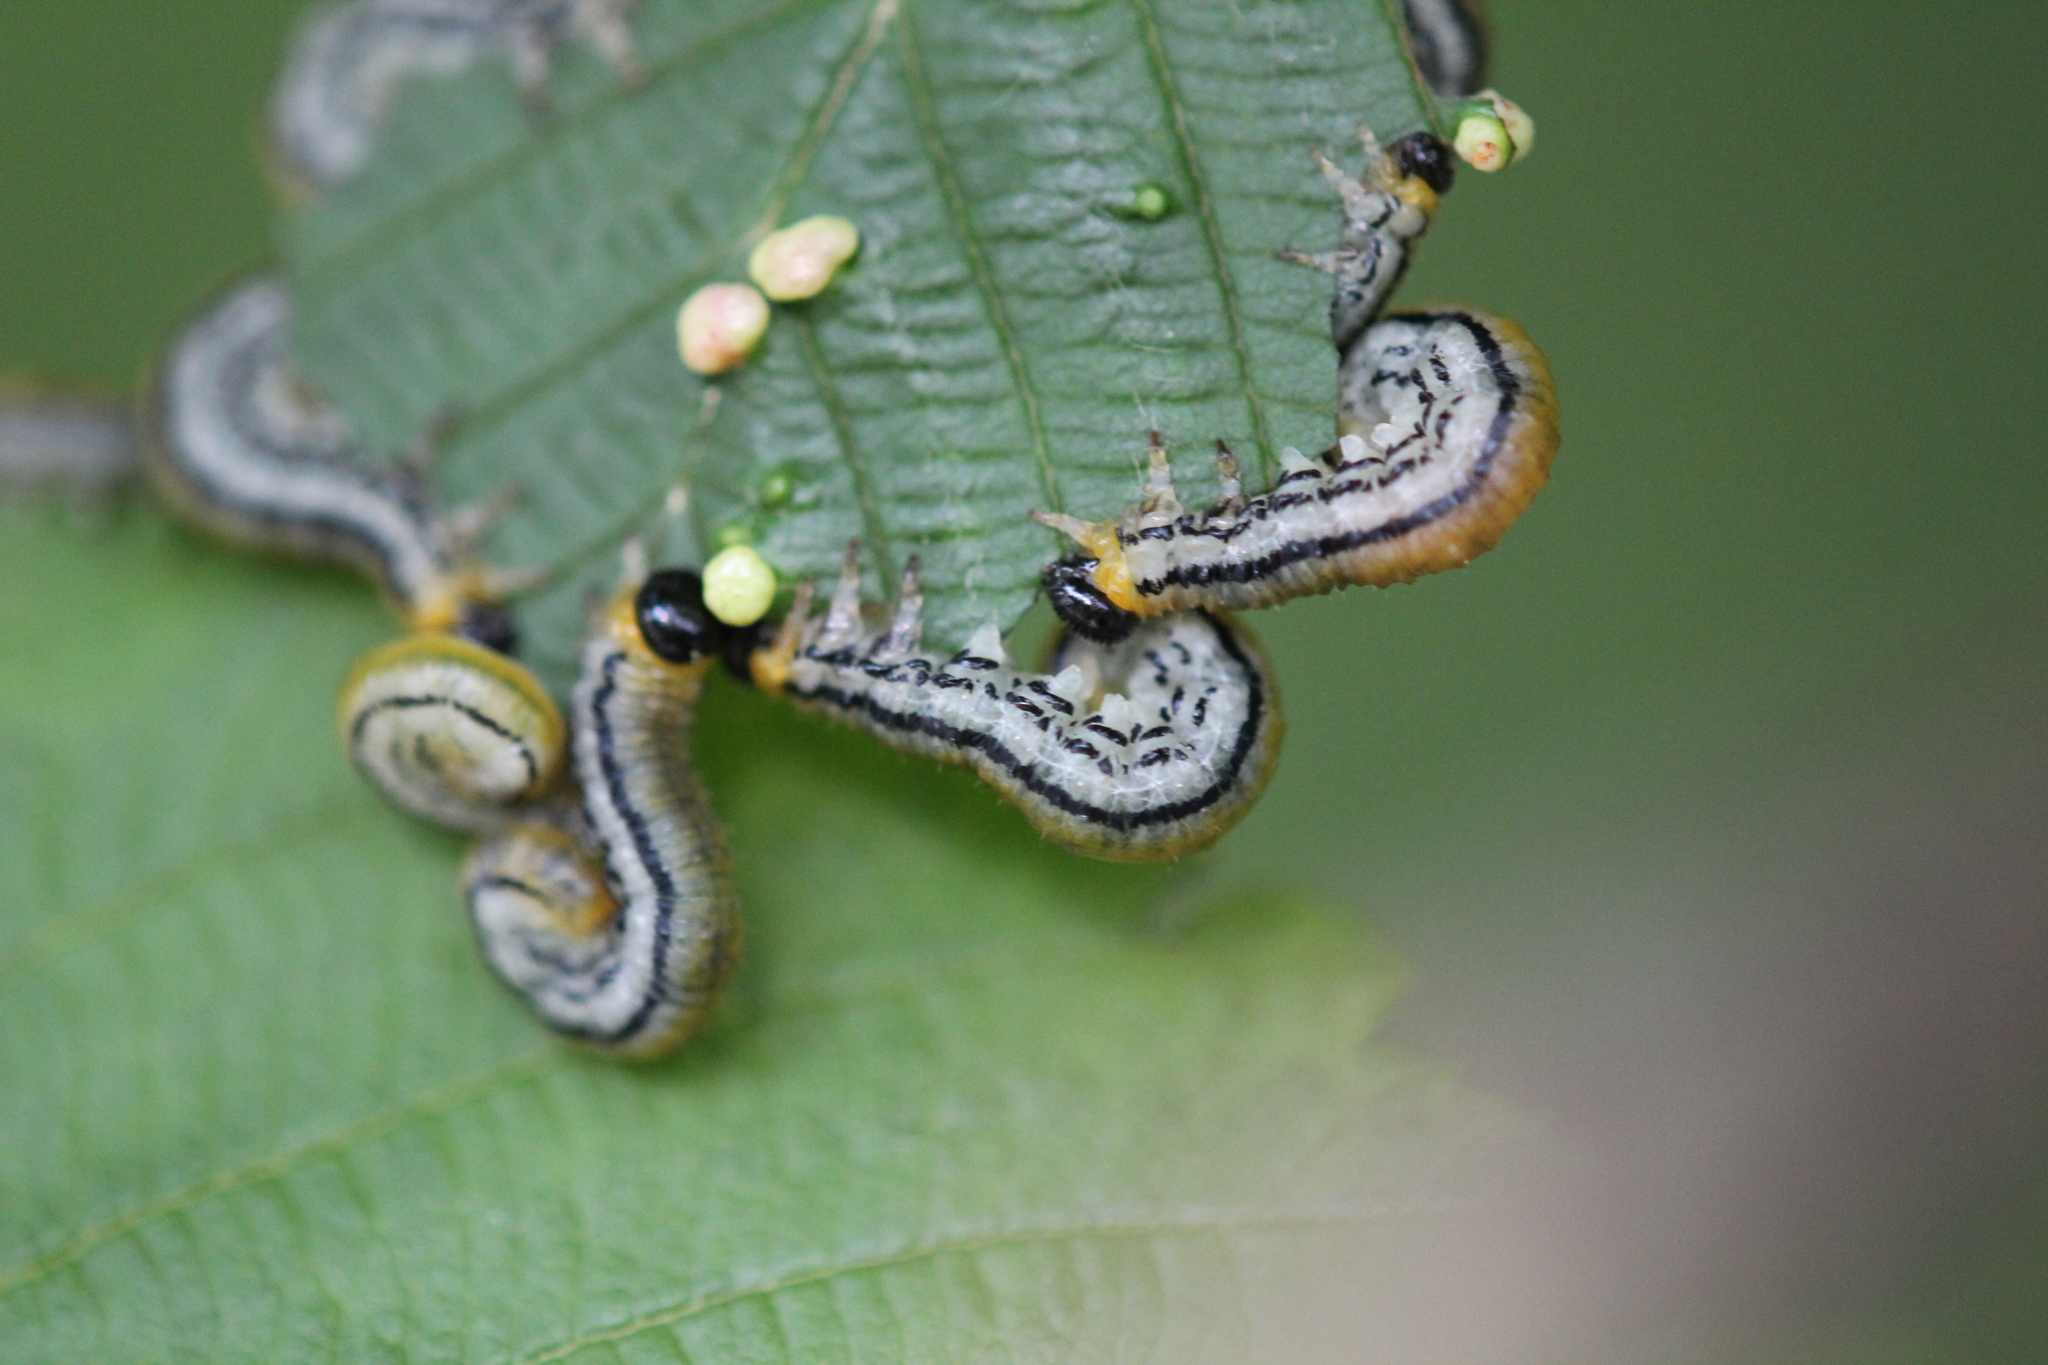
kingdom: Animalia
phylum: Arthropoda
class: Insecta
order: Hymenoptera
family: Tenthredinidae
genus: Hemichroa
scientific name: Hemichroa crocea
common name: Striped alder sawfly
